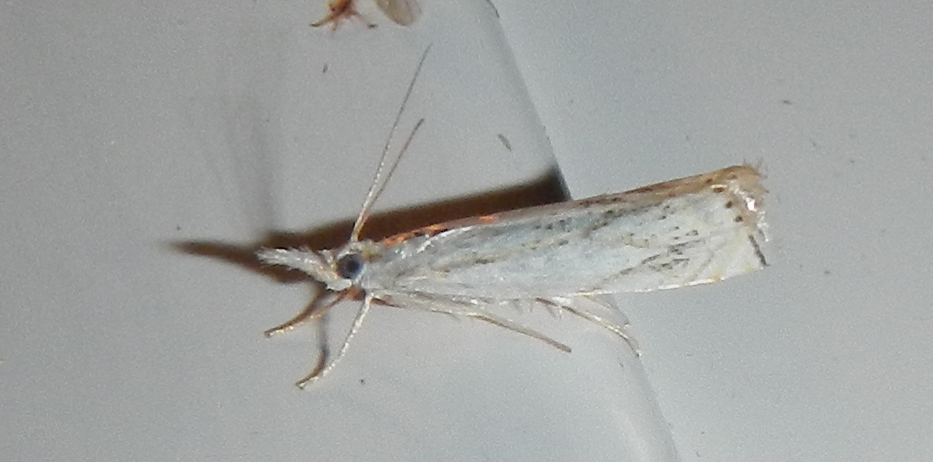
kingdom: Animalia
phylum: Arthropoda
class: Insecta
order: Lepidoptera
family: Crambidae
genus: Crambus
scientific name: Crambus albellus
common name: Small white grass-veneer
